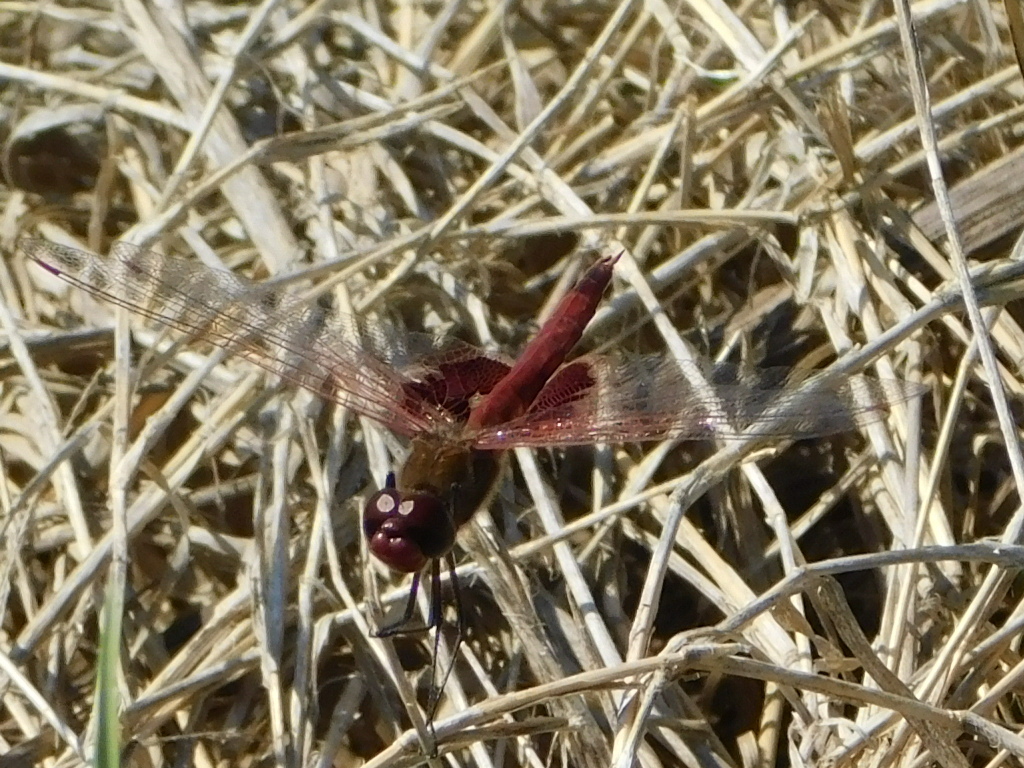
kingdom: Animalia
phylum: Arthropoda
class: Insecta
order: Odonata
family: Libellulidae
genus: Tramea
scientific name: Tramea onusta
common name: Red saddlebags
